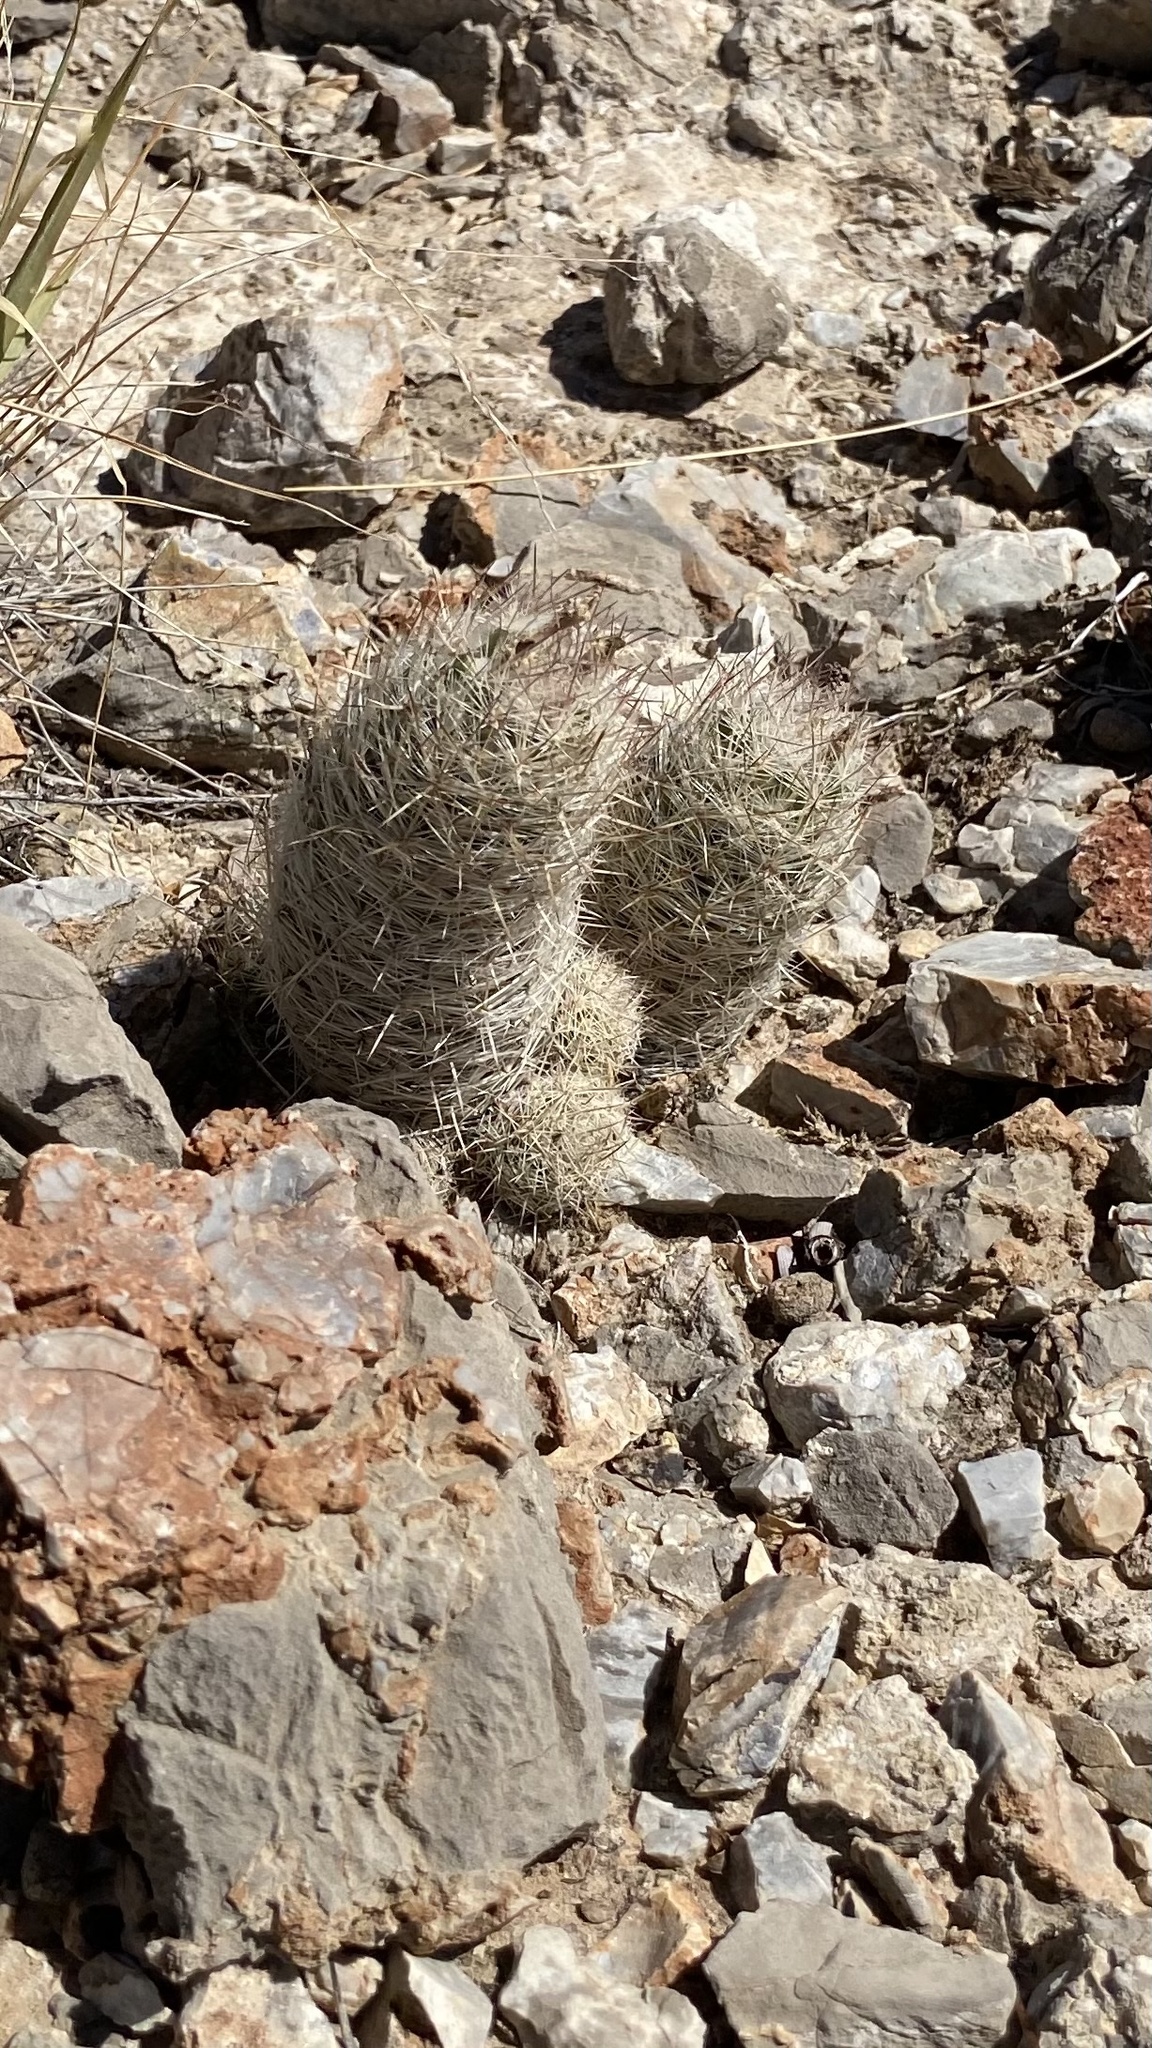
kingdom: Plantae
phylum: Tracheophyta
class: Magnoliopsida
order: Caryophyllales
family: Cactaceae
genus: Pelecyphora
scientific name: Pelecyphora tuberculosa
